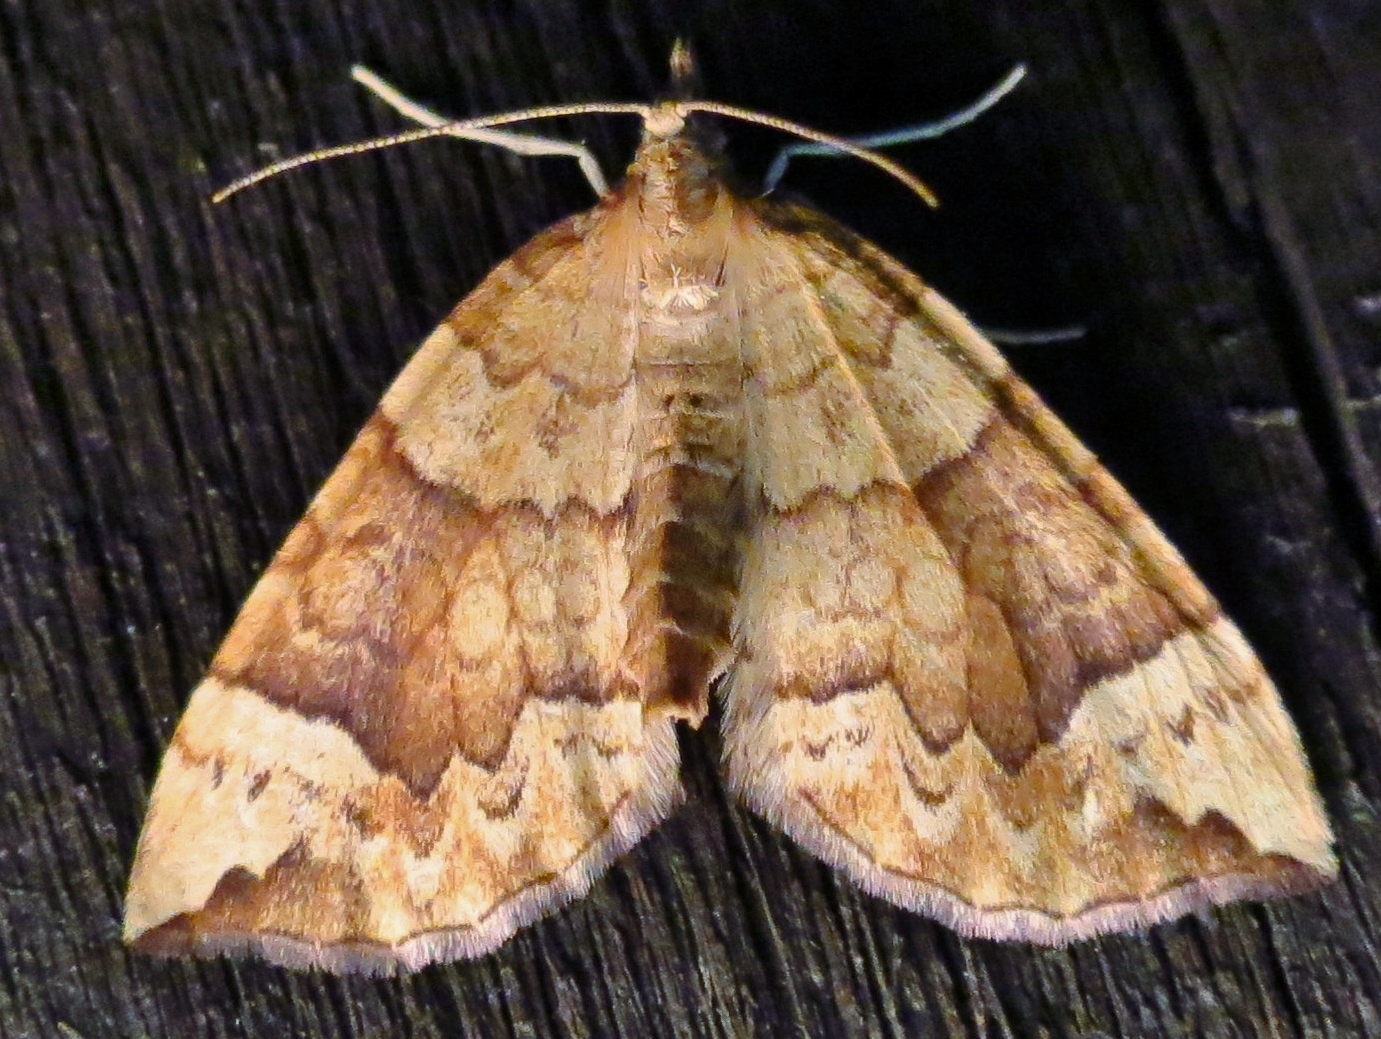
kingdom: Animalia
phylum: Arthropoda
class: Insecta
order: Lepidoptera
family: Geometridae
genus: Eulithis
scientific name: Eulithis populata
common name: Northern spinach
